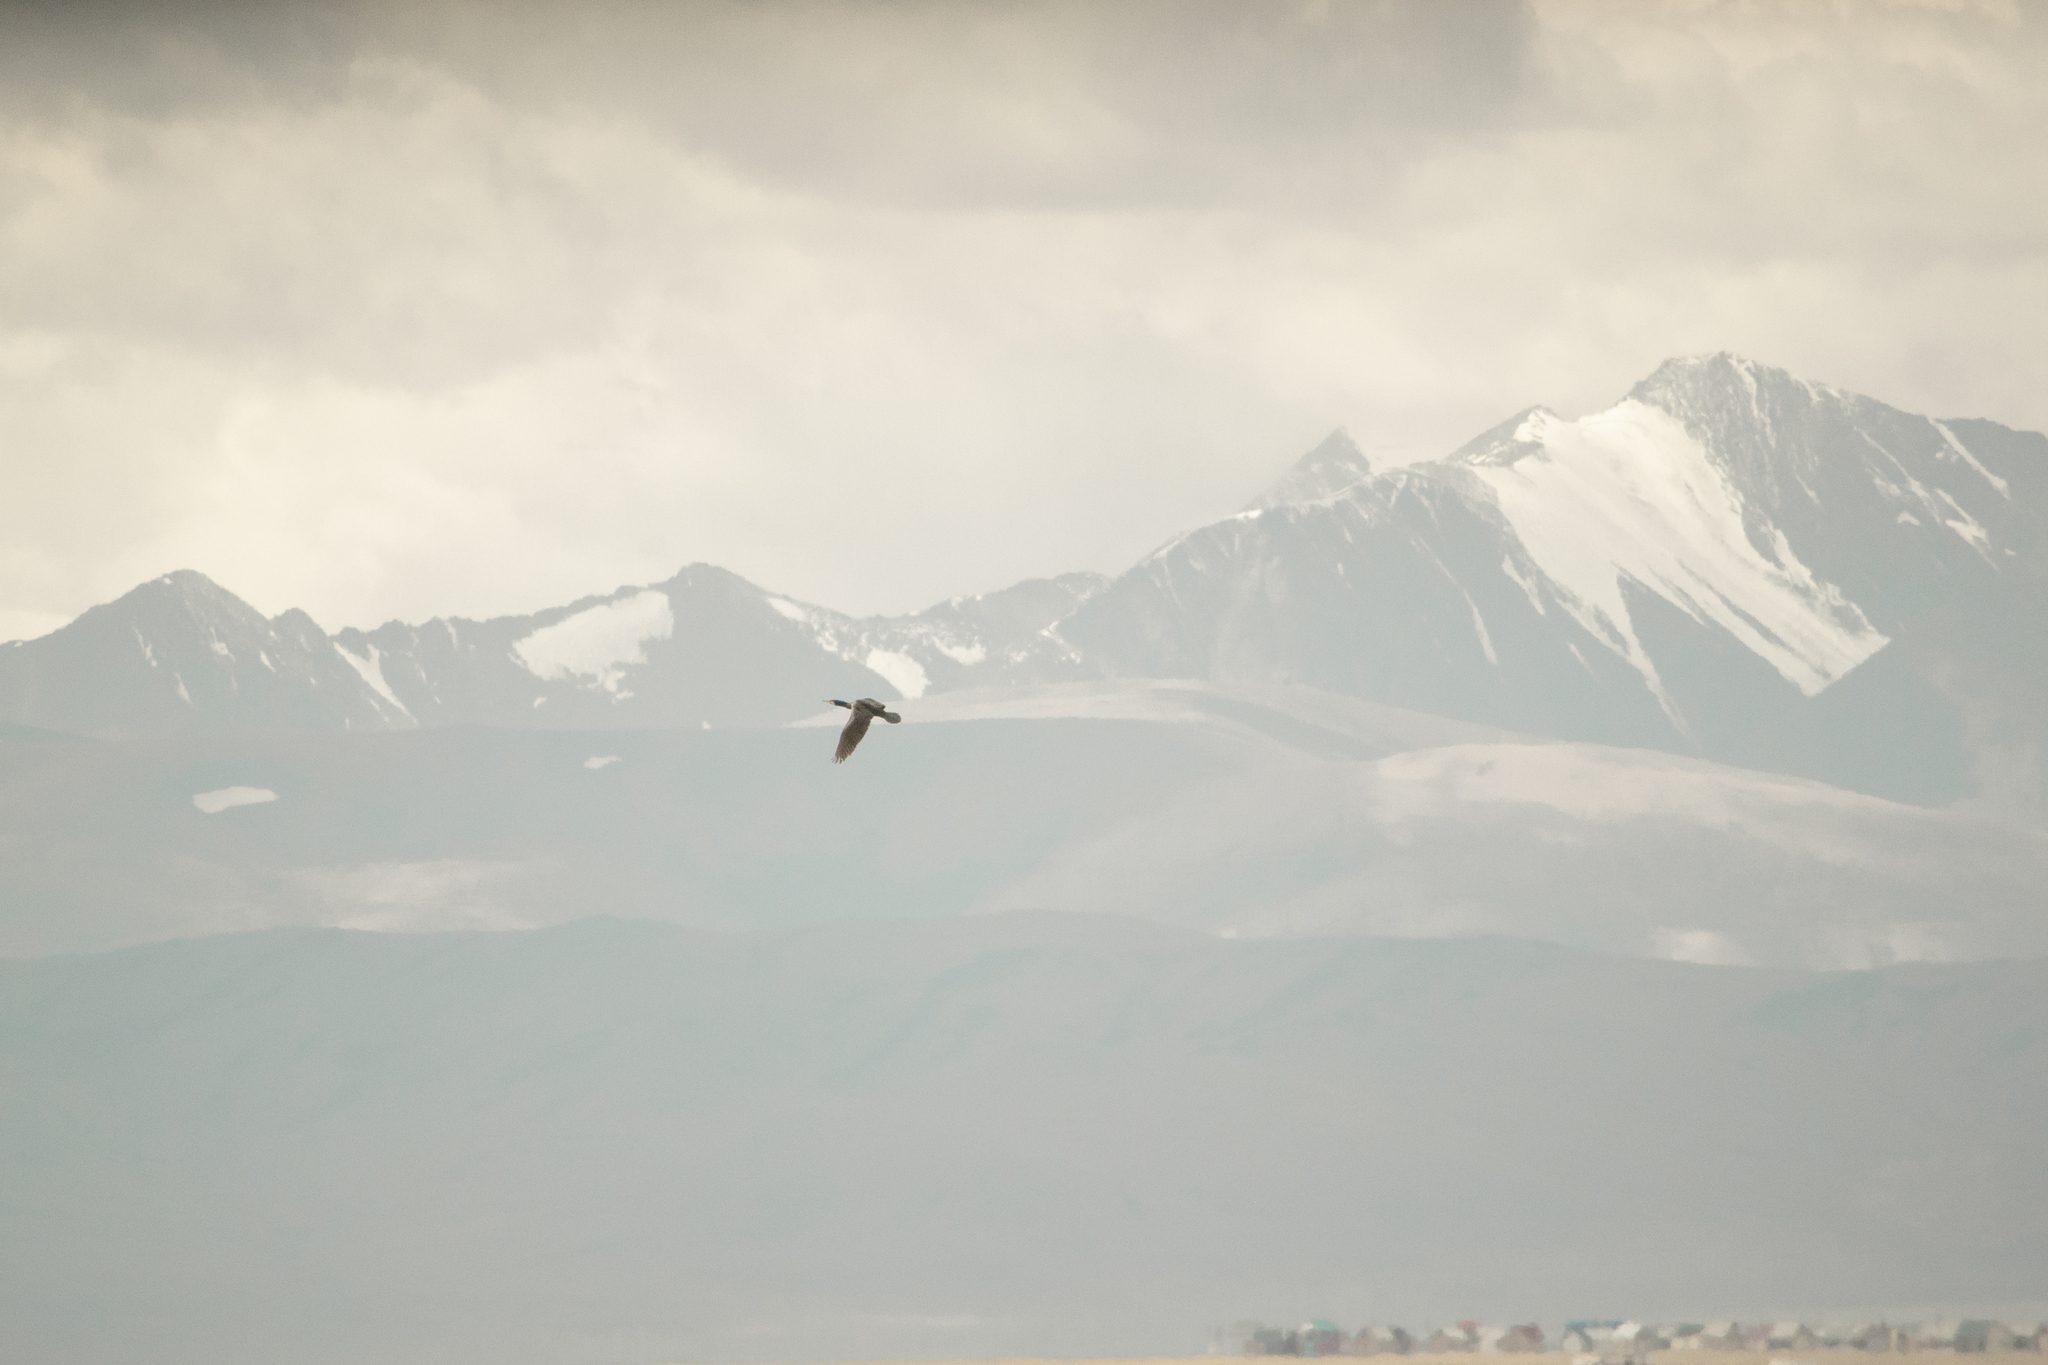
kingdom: Animalia
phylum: Chordata
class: Aves
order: Suliformes
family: Phalacrocoracidae
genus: Phalacrocorax
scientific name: Phalacrocorax carbo
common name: Great cormorant
